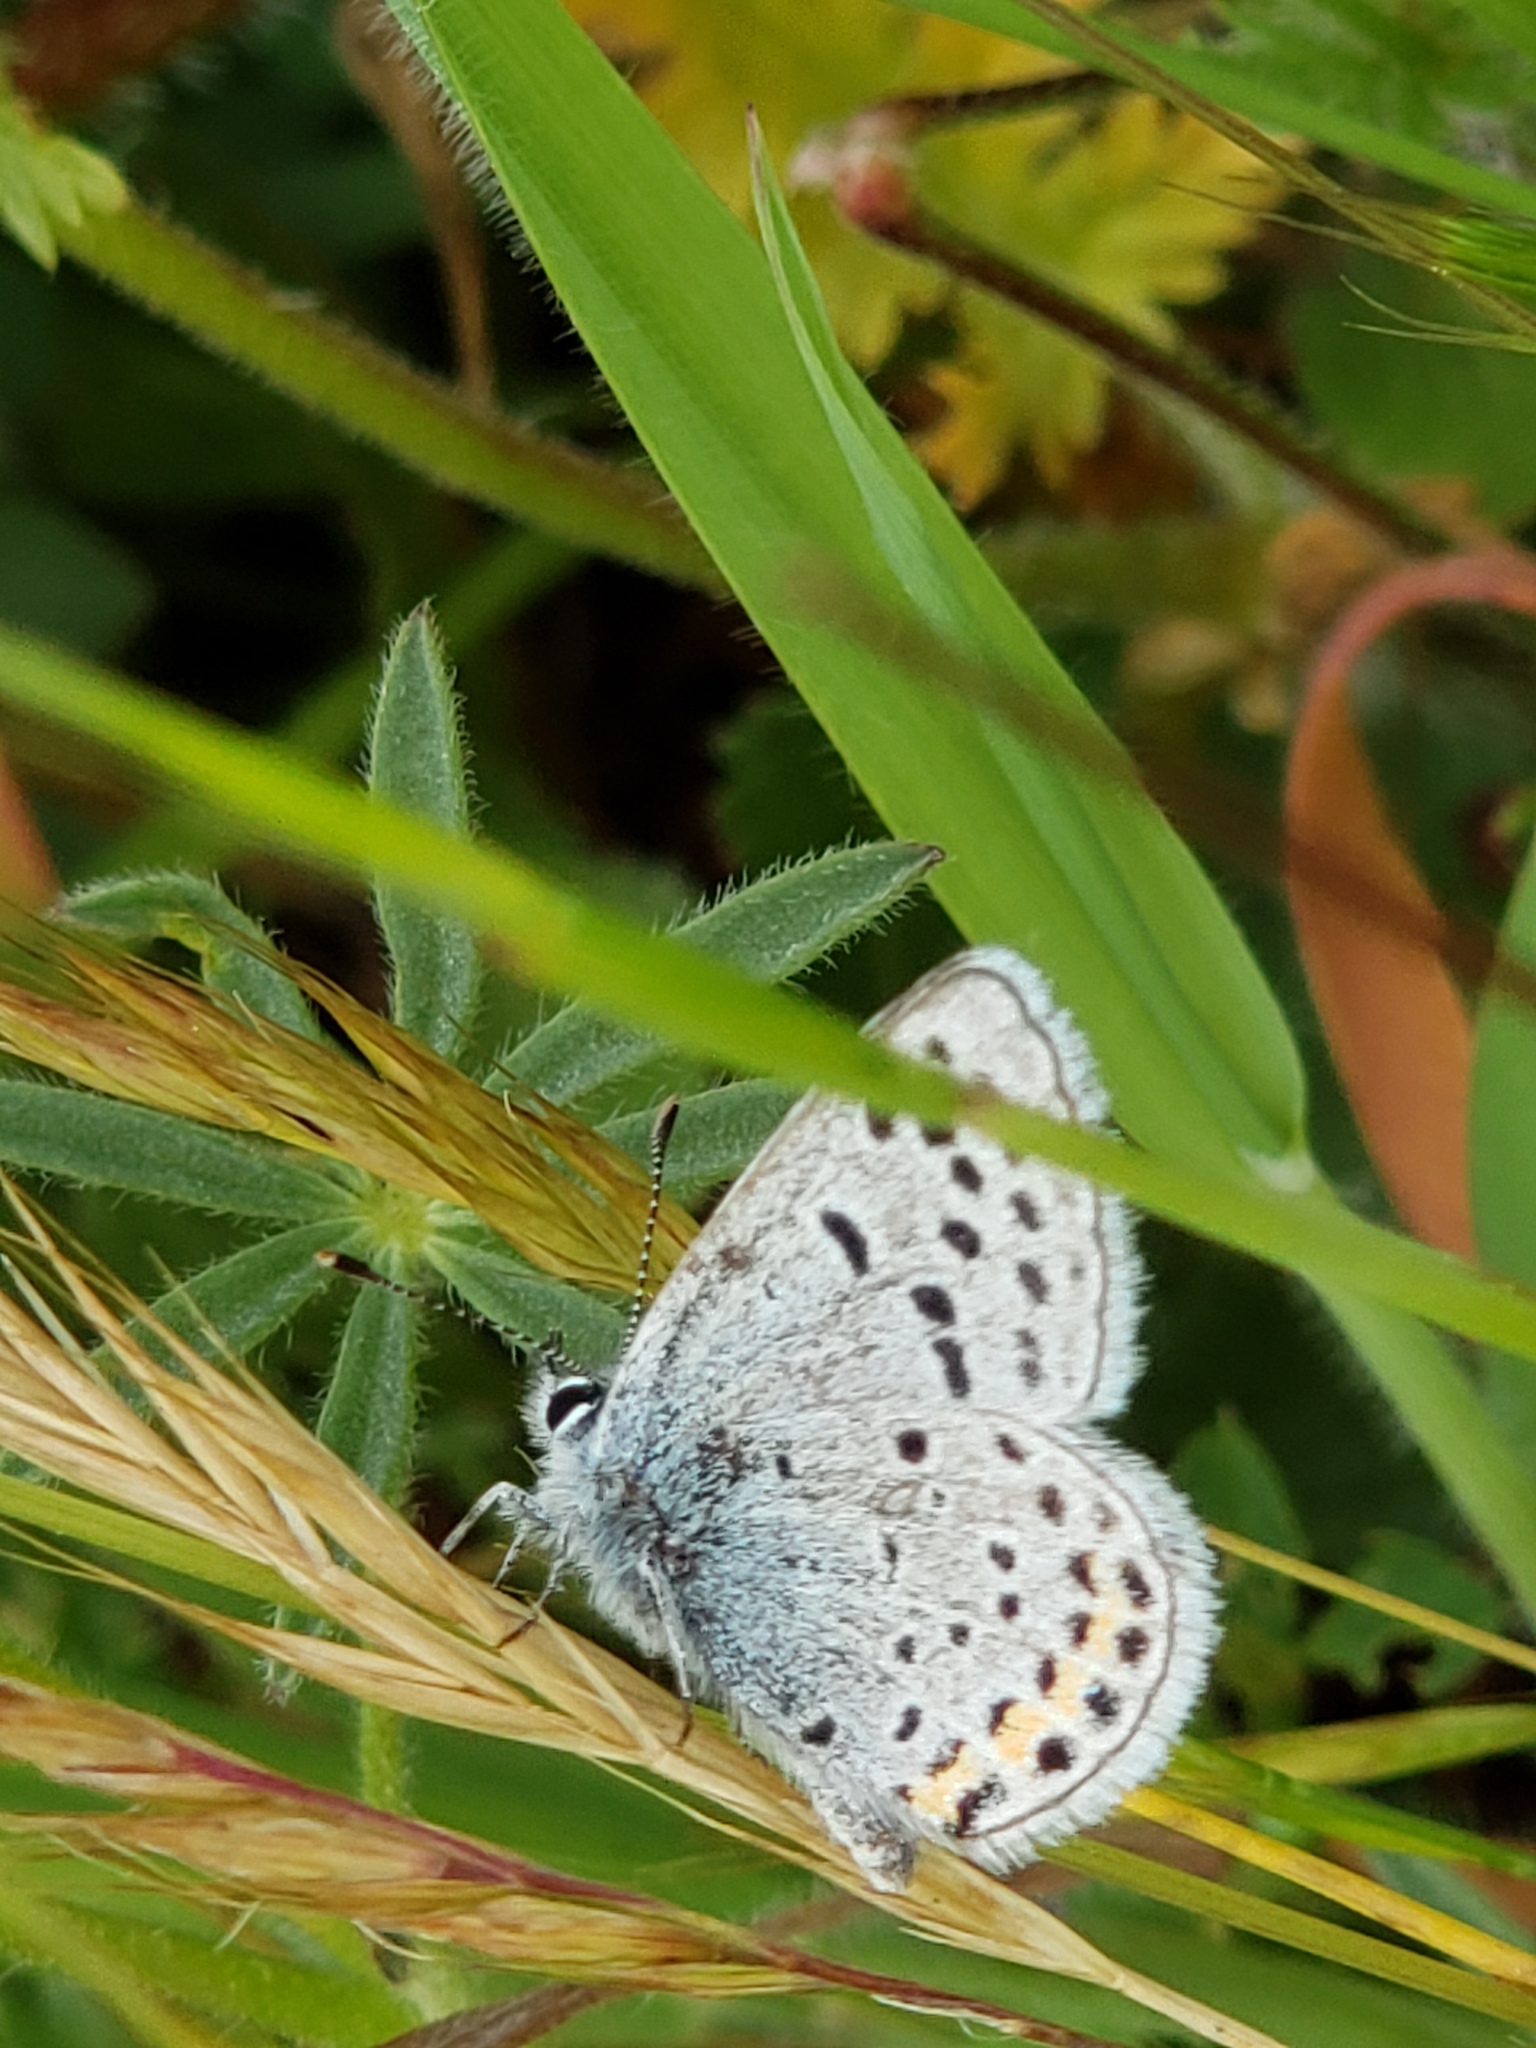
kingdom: Animalia
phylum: Arthropoda
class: Insecta
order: Lepidoptera
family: Lycaenidae
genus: Icaricia
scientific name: Icaricia acmon
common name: Acmon blue
